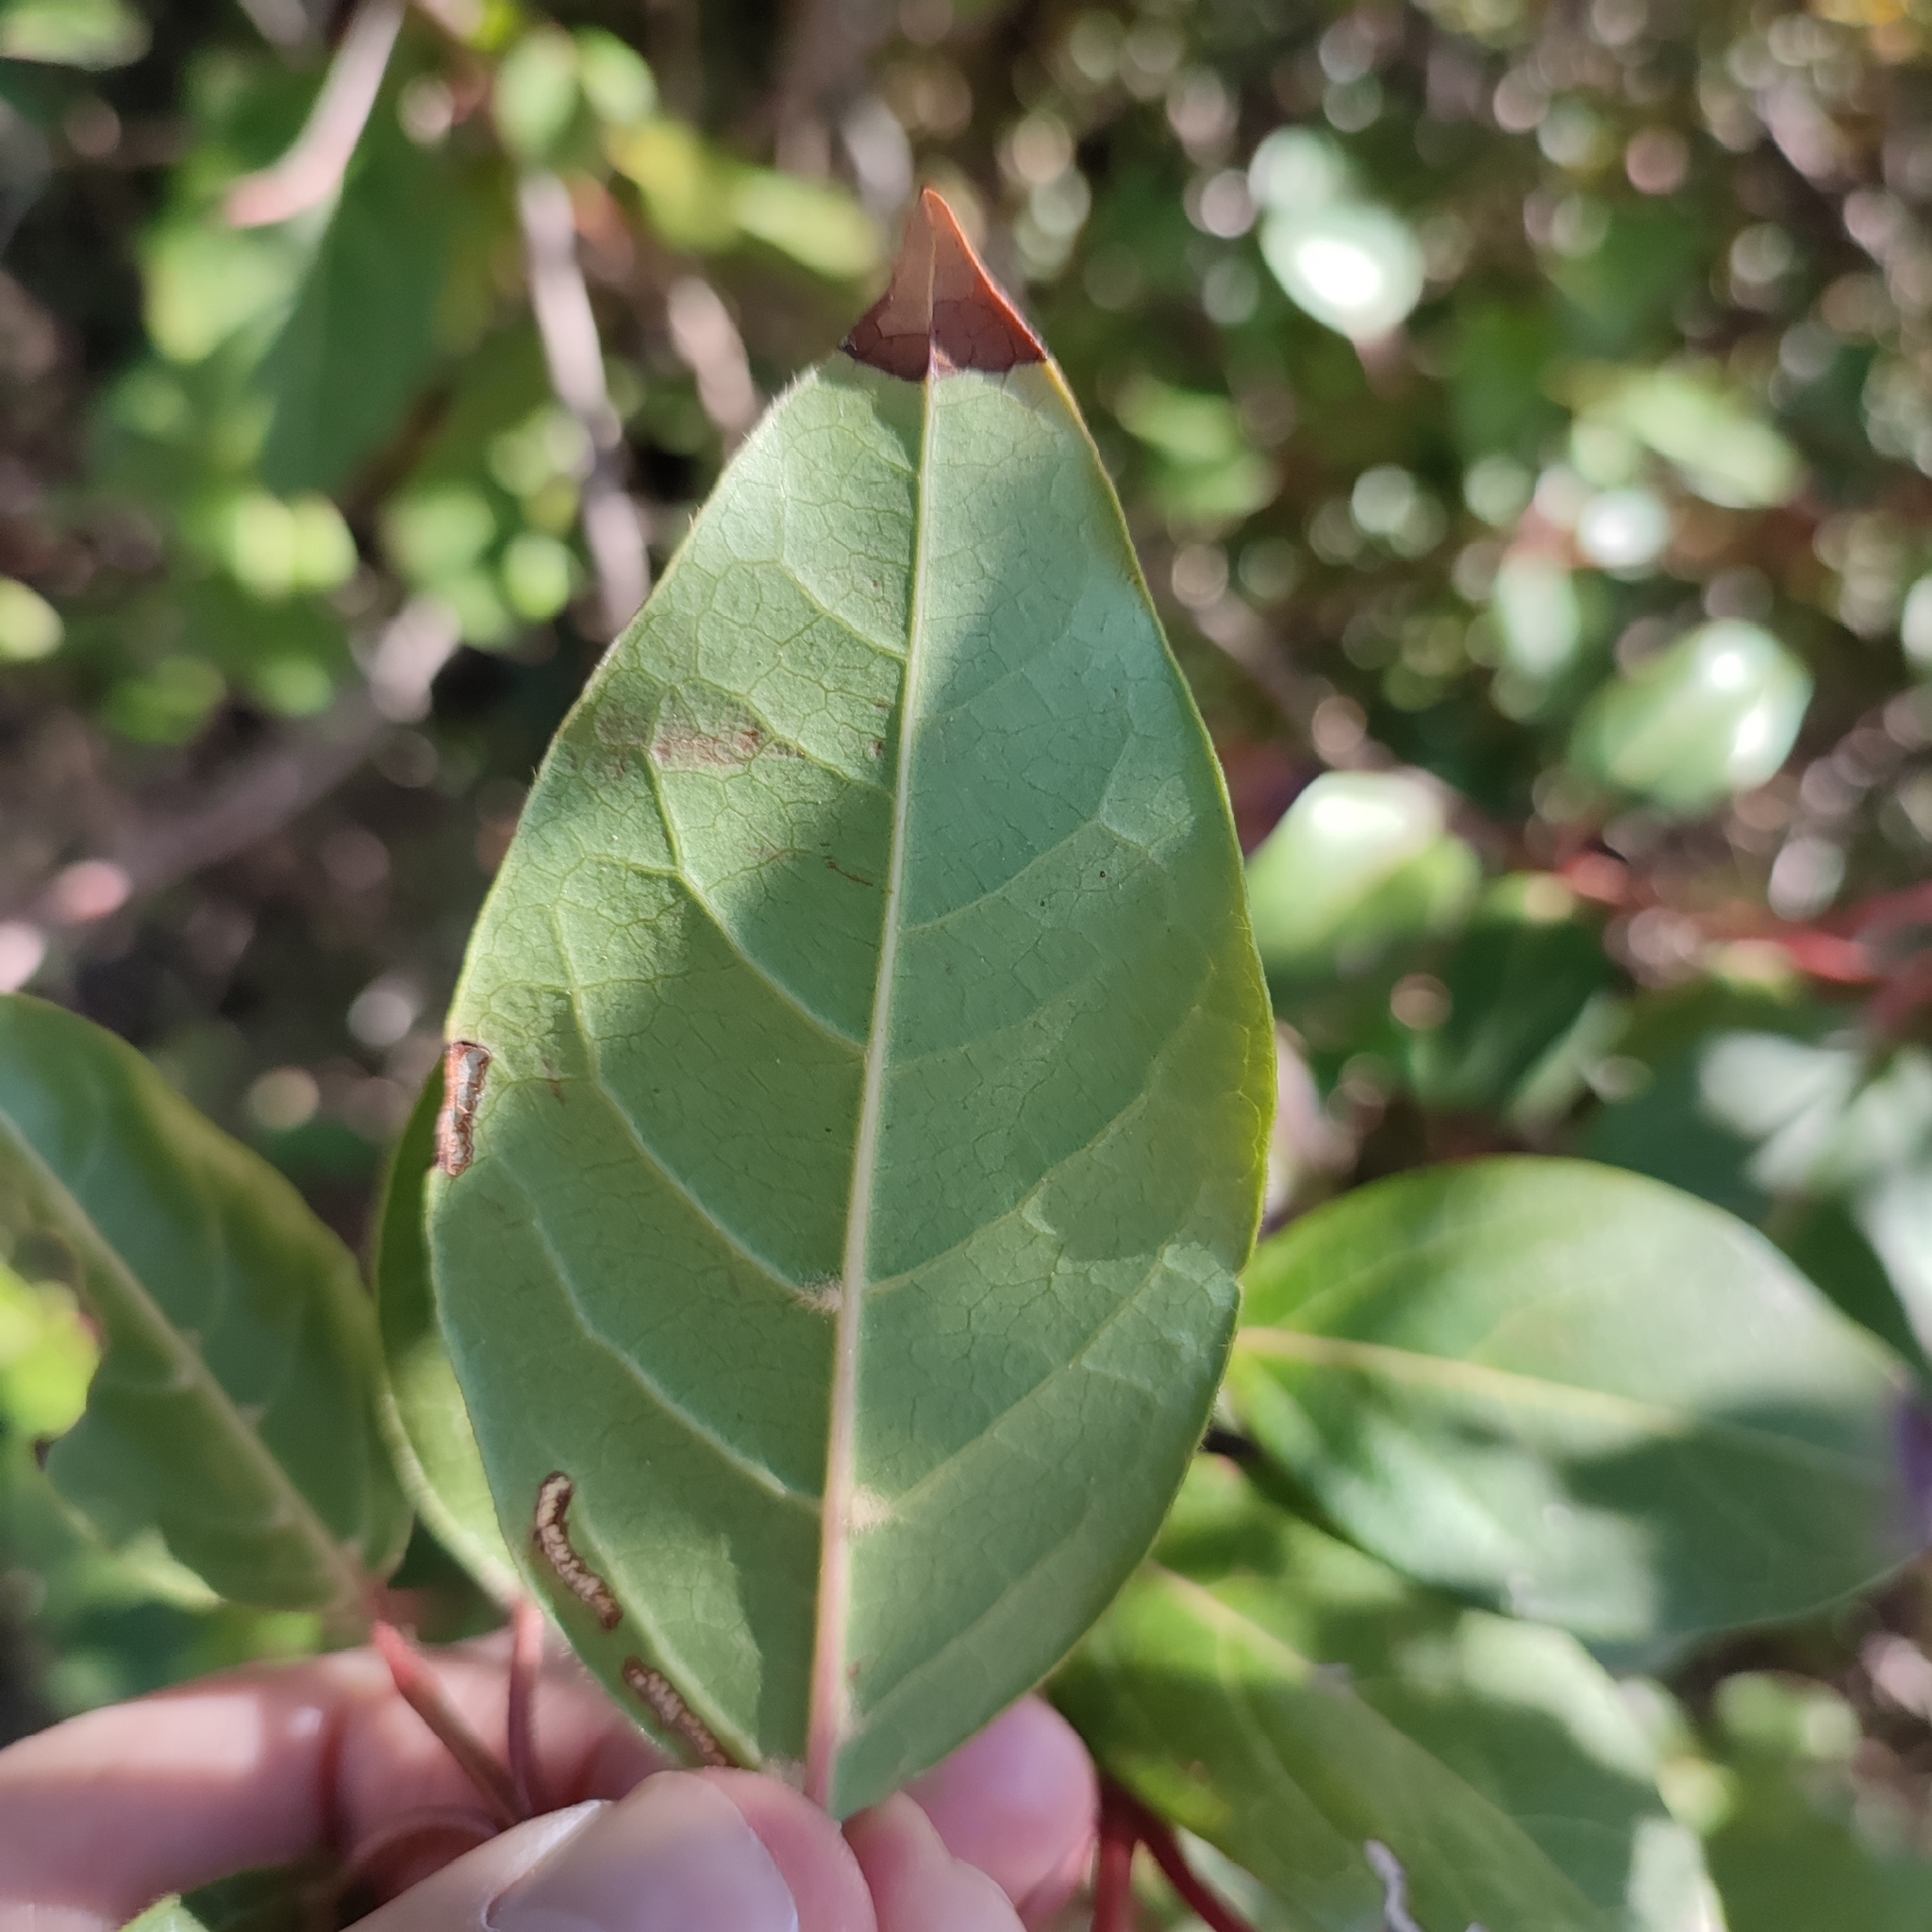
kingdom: Plantae
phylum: Tracheophyta
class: Magnoliopsida
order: Dipsacales
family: Viburnaceae
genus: Viburnum
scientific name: Viburnum tinus
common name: Laurustinus
